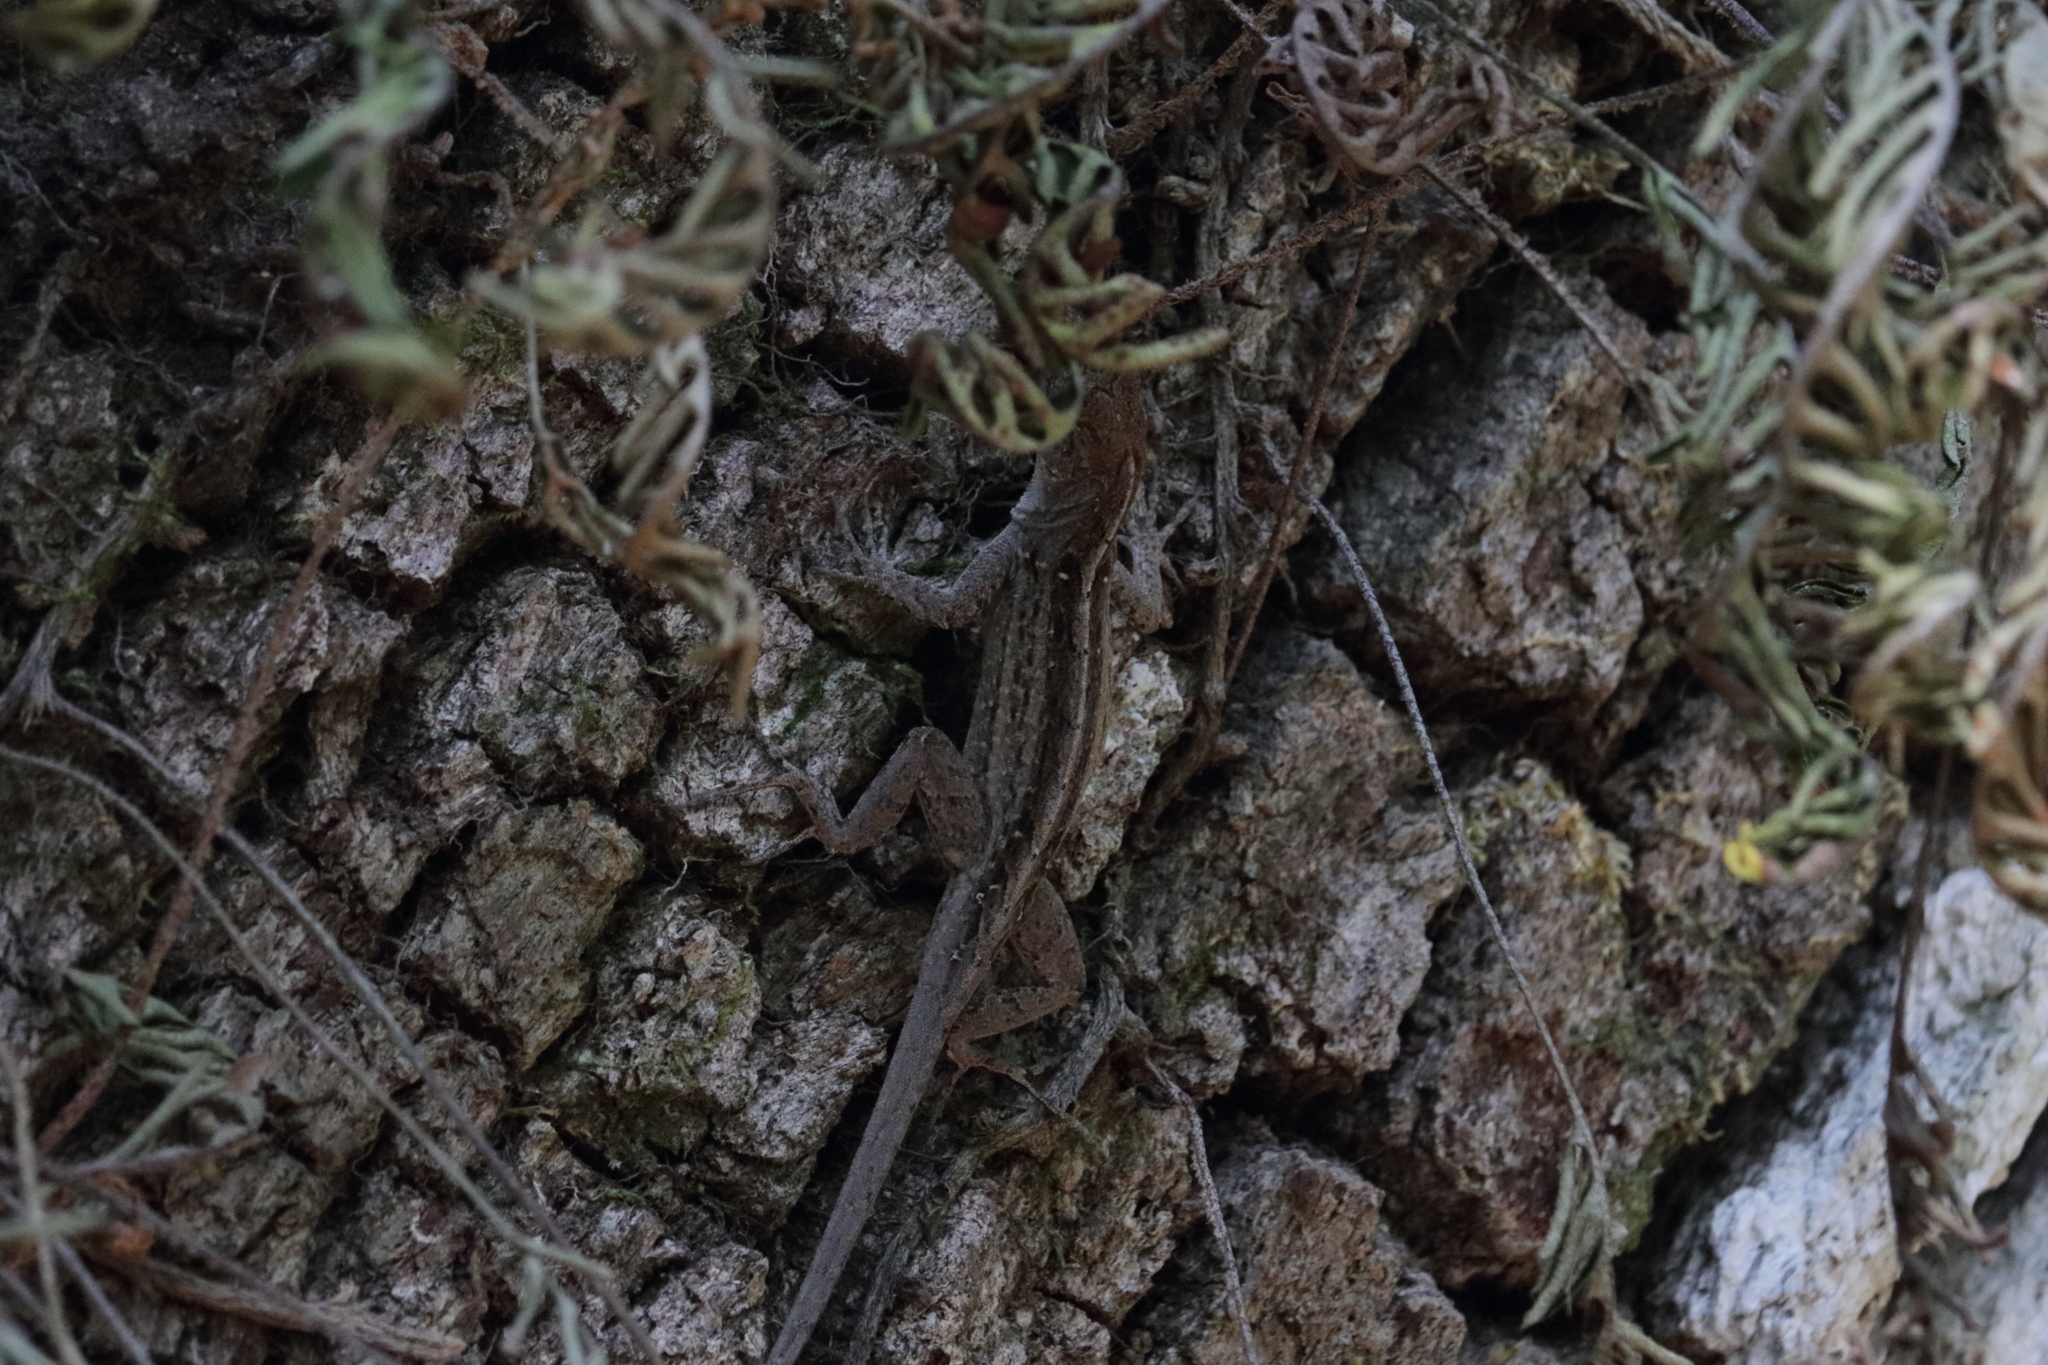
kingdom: Animalia
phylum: Chordata
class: Squamata
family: Dactyloidae
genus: Anolis
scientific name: Anolis sagrei
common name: Brown anole
